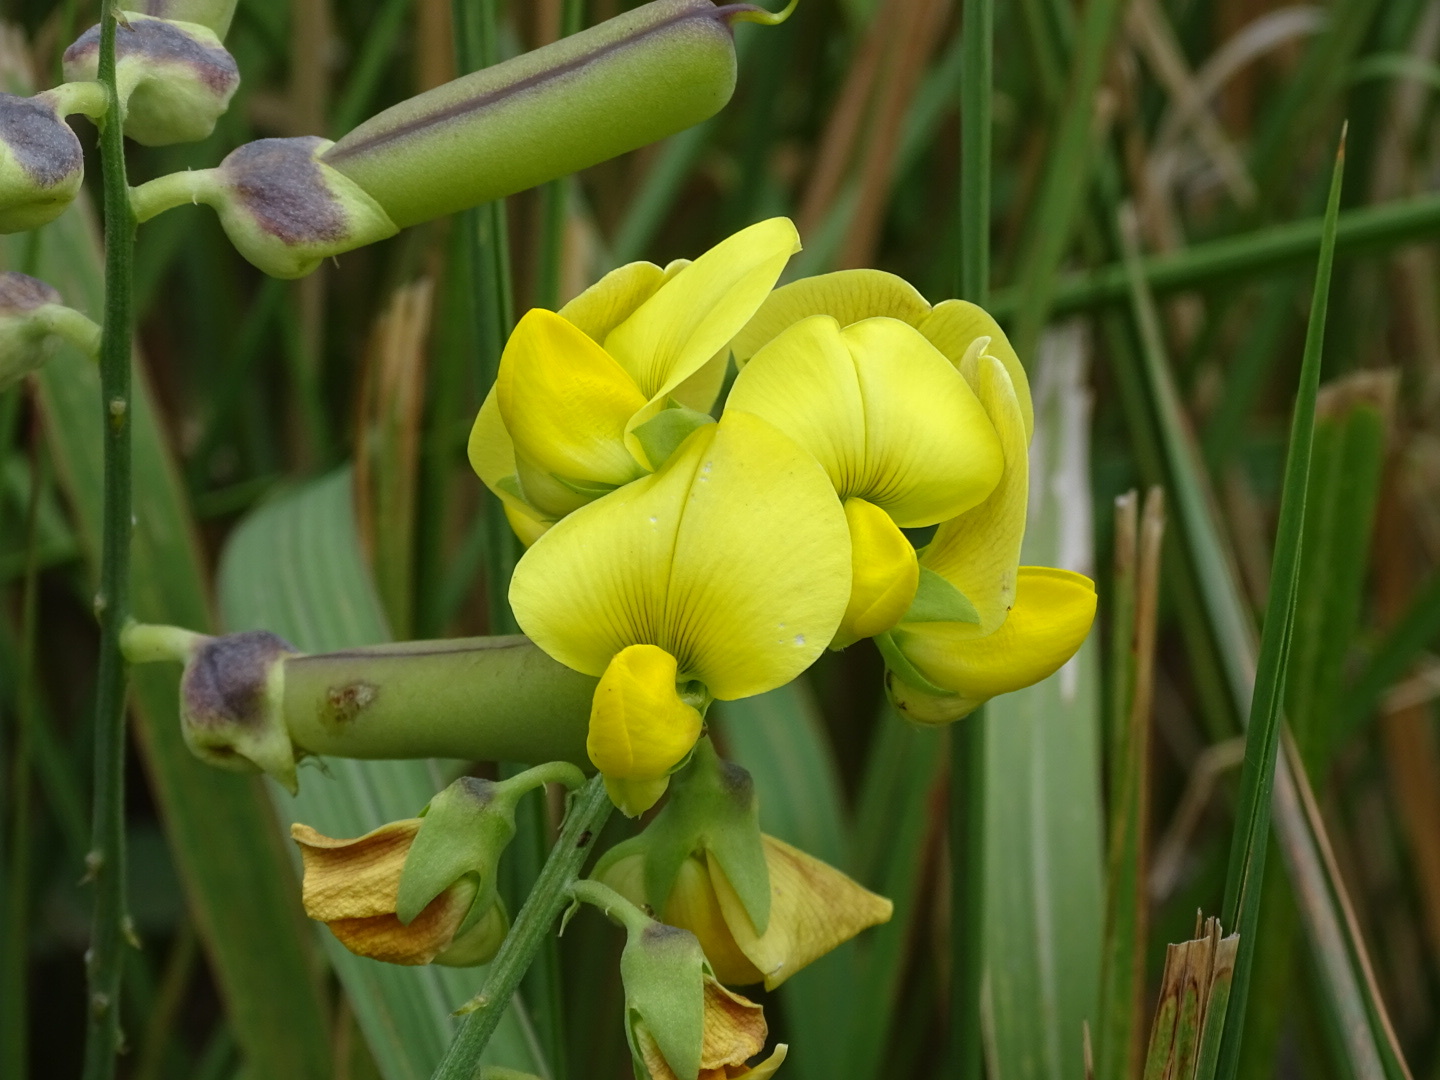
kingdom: Plantae
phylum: Tracheophyta
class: Magnoliopsida
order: Fabales
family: Fabaceae
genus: Crotalaria
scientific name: Crotalaria retusa
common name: Rattleweed
